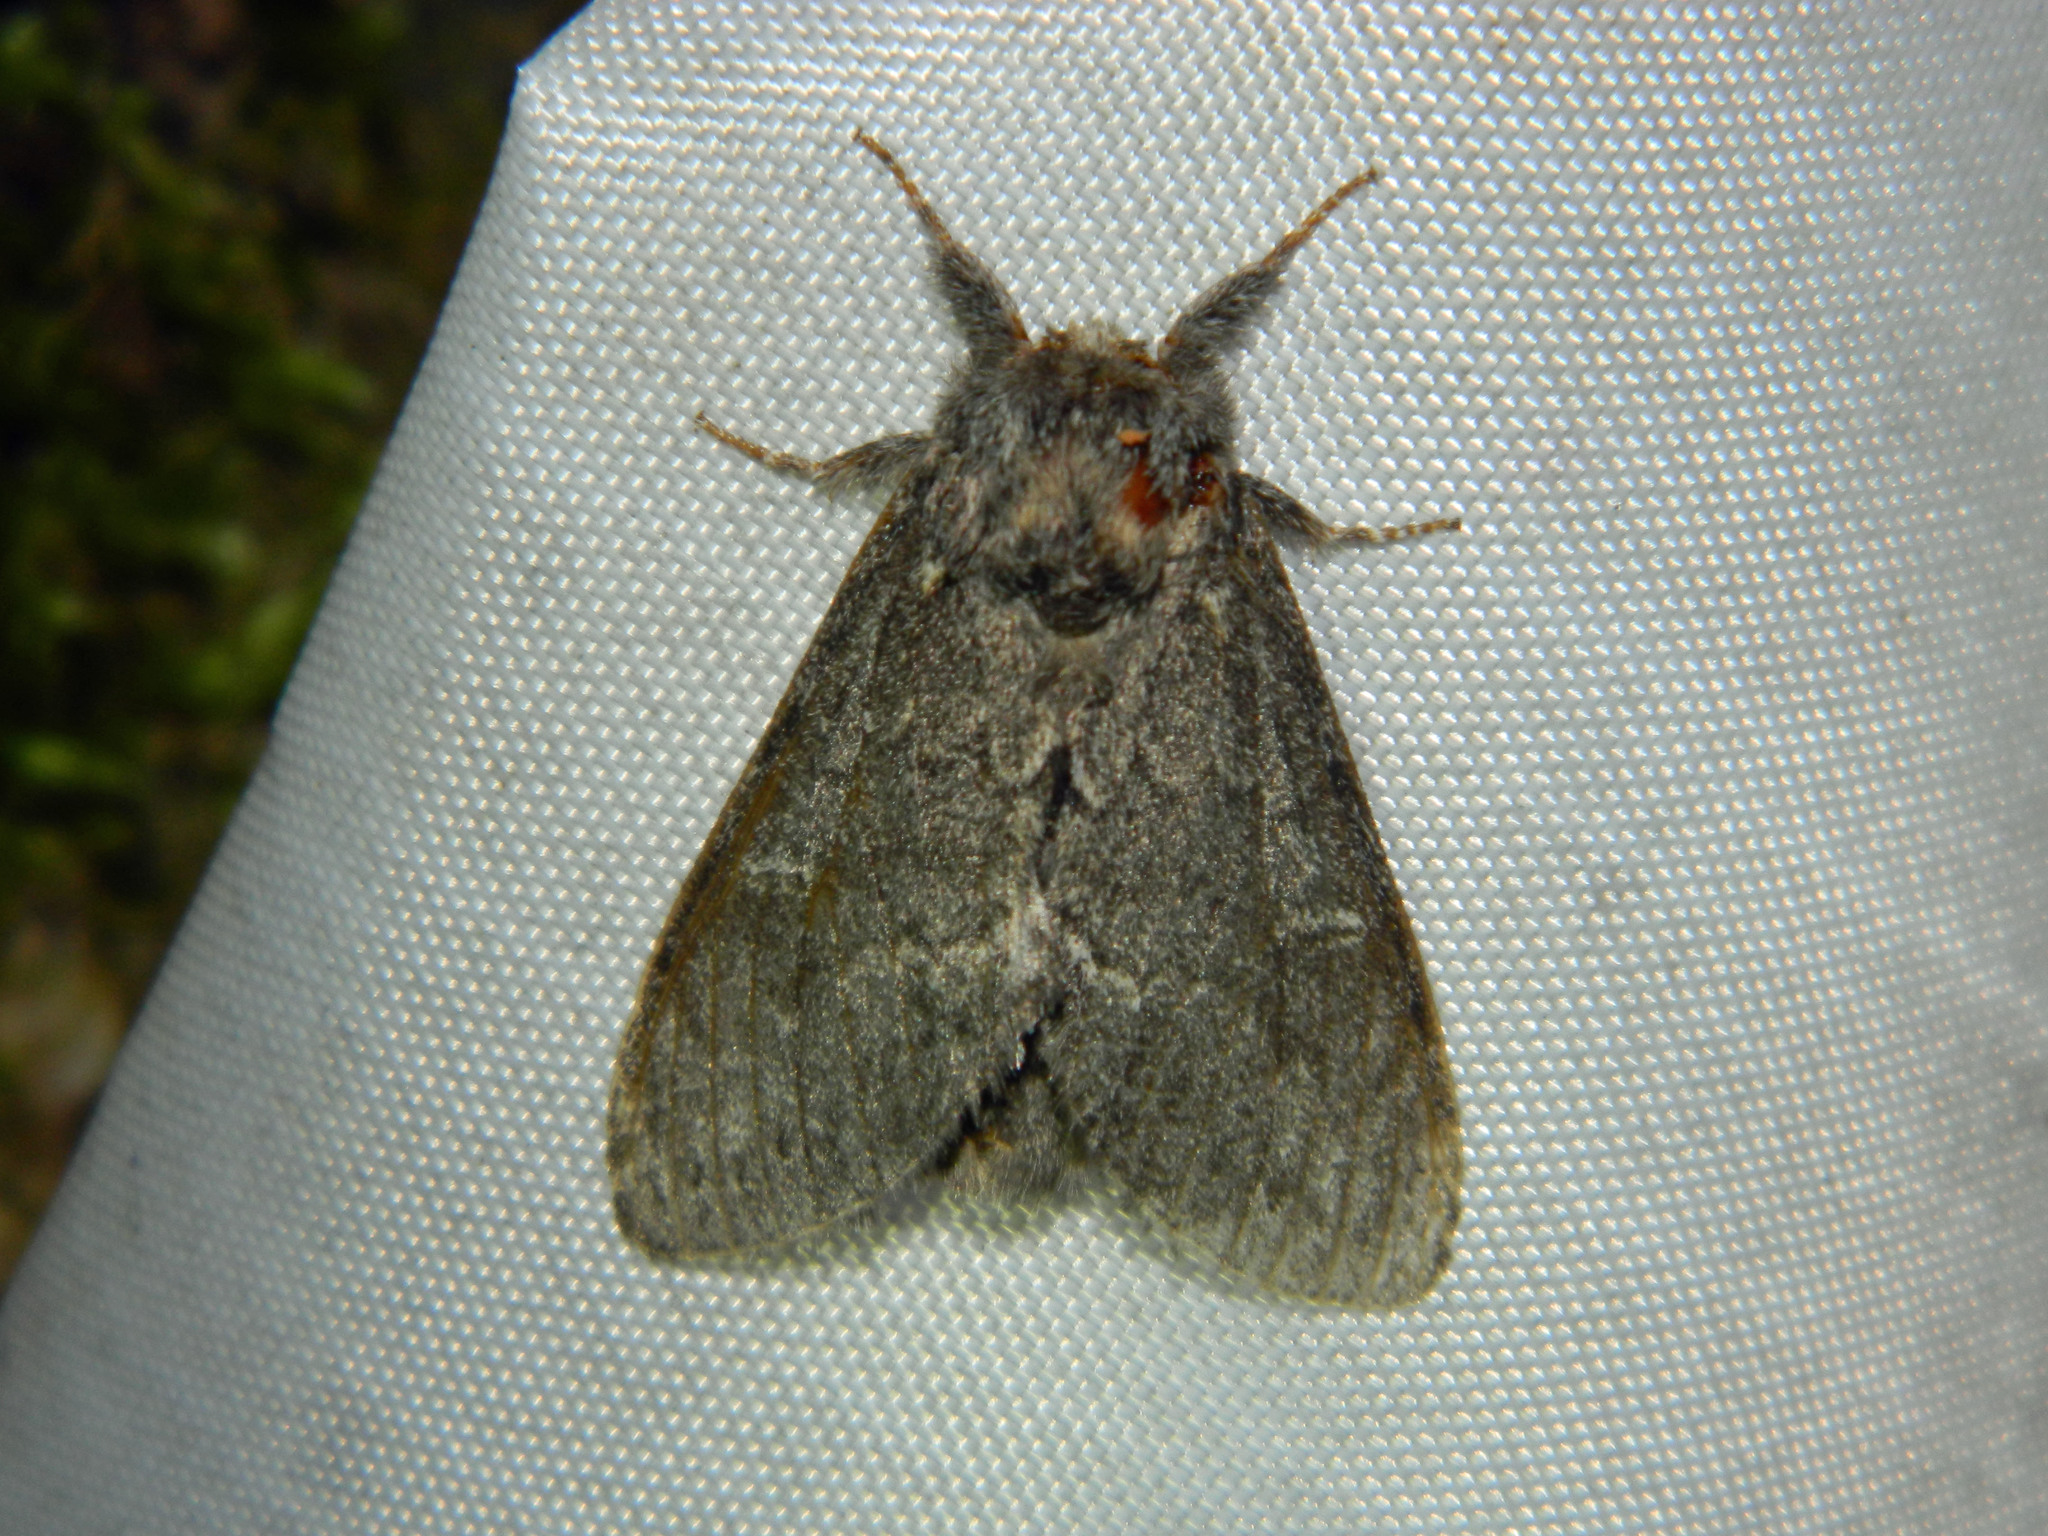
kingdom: Animalia
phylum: Arthropoda
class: Insecta
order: Lepidoptera
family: Notodontidae
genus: Notodonta
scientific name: Notodonta torva
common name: Large dark prominent
